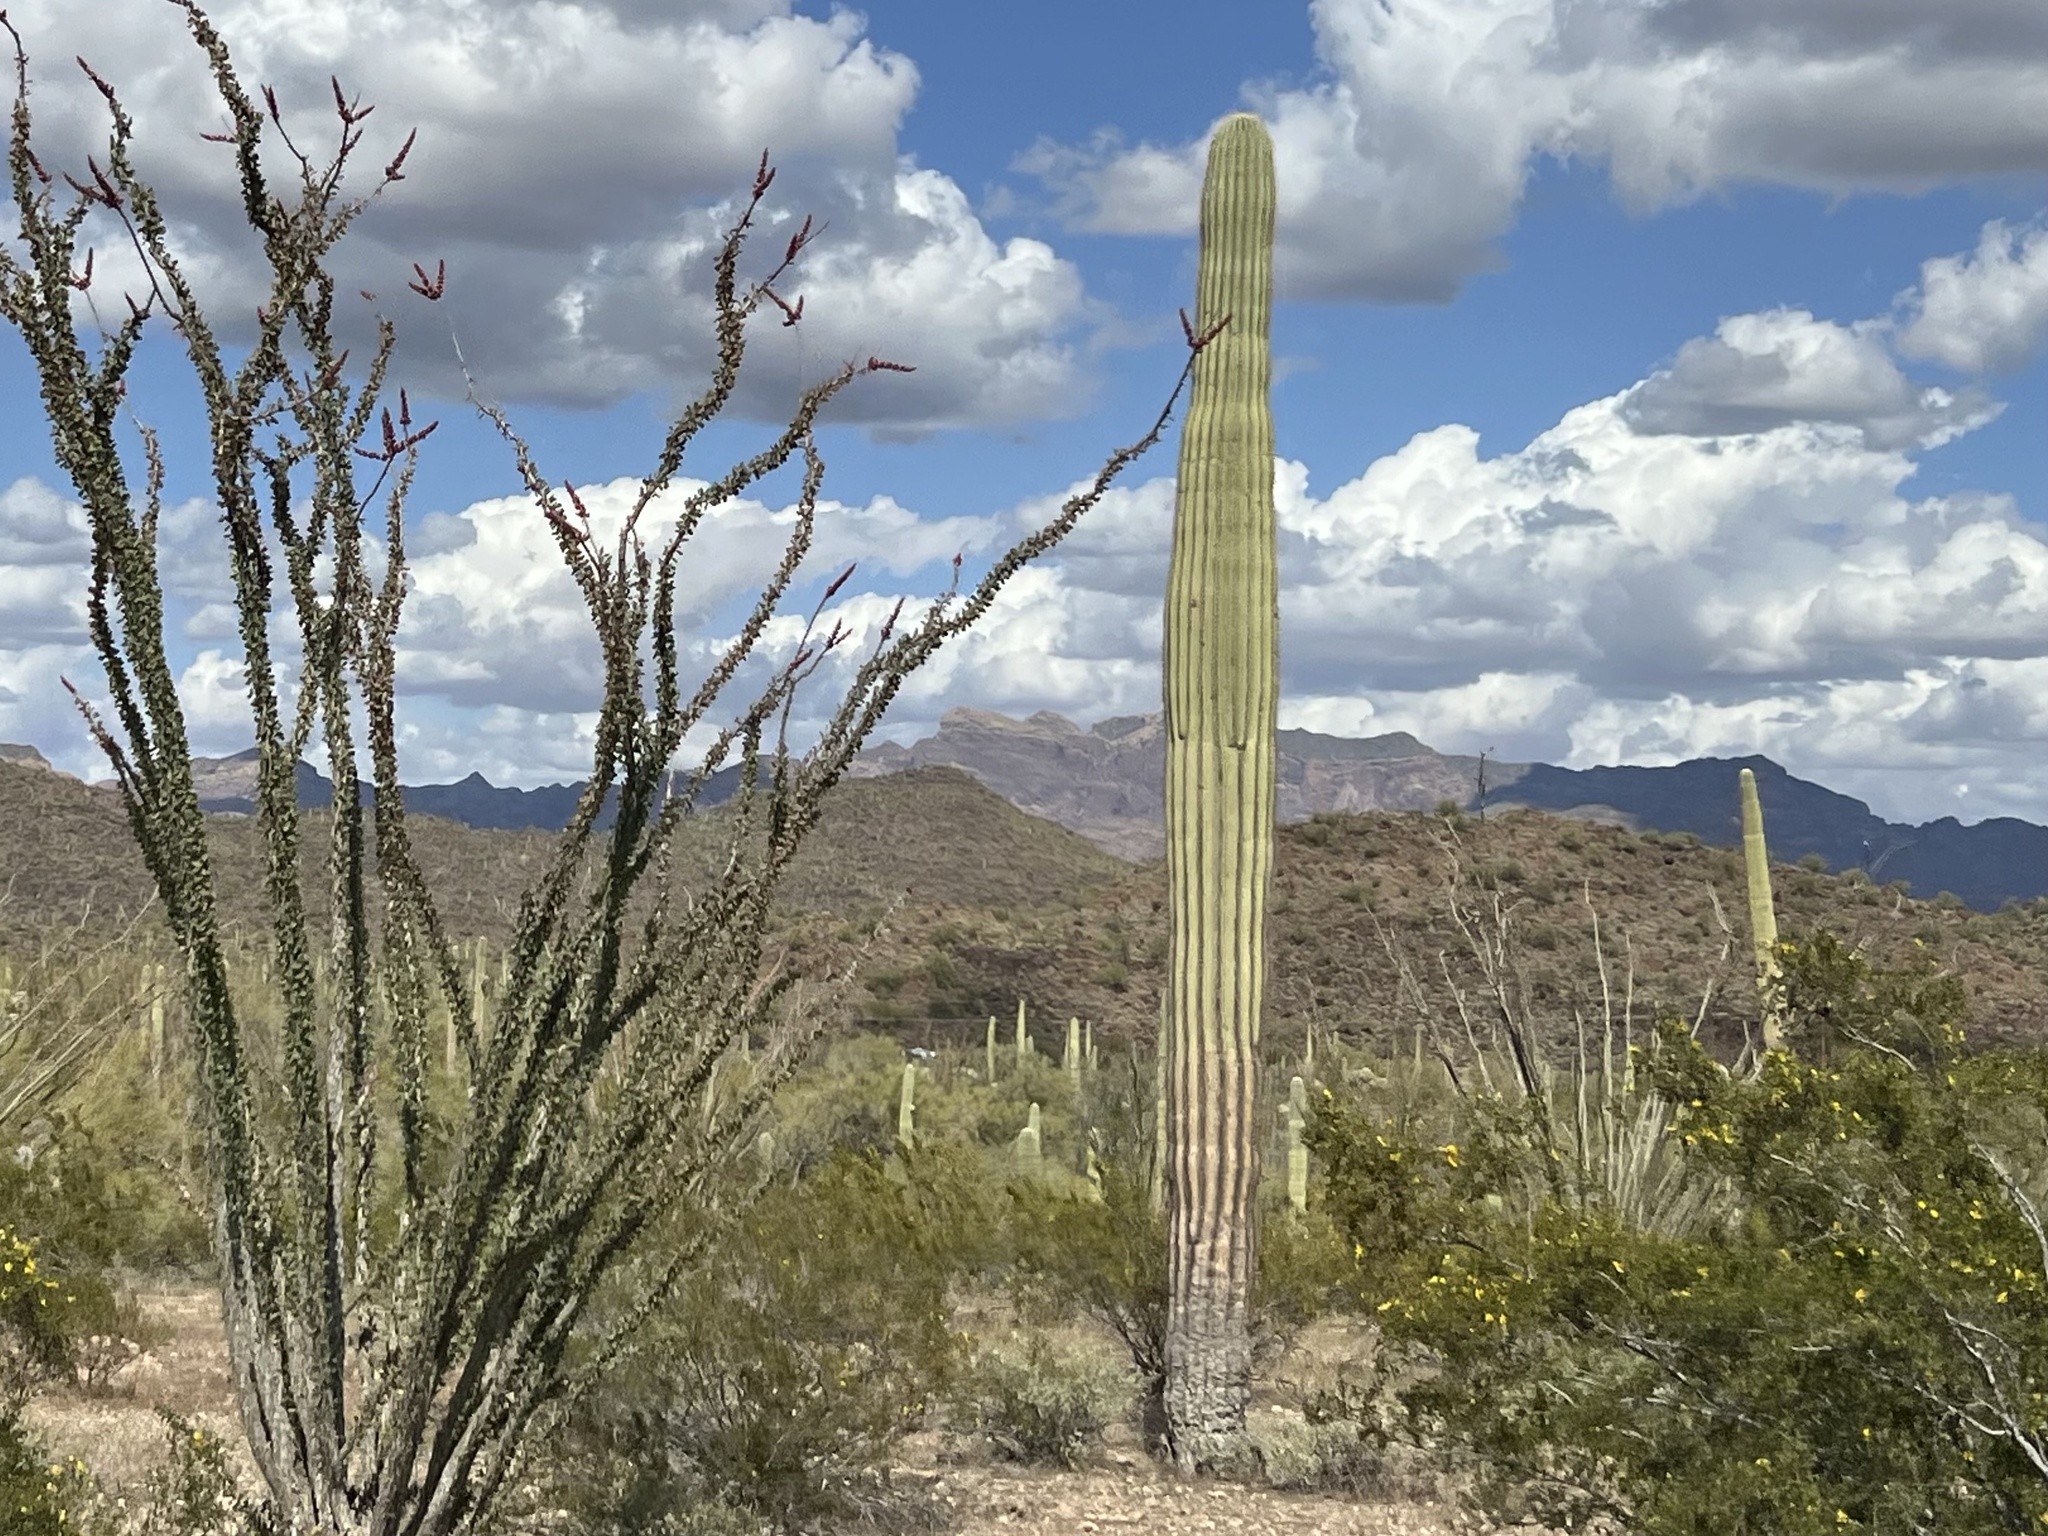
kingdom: Plantae
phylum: Tracheophyta
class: Magnoliopsida
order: Caryophyllales
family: Cactaceae
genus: Carnegiea
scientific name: Carnegiea gigantea
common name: Saguaro
